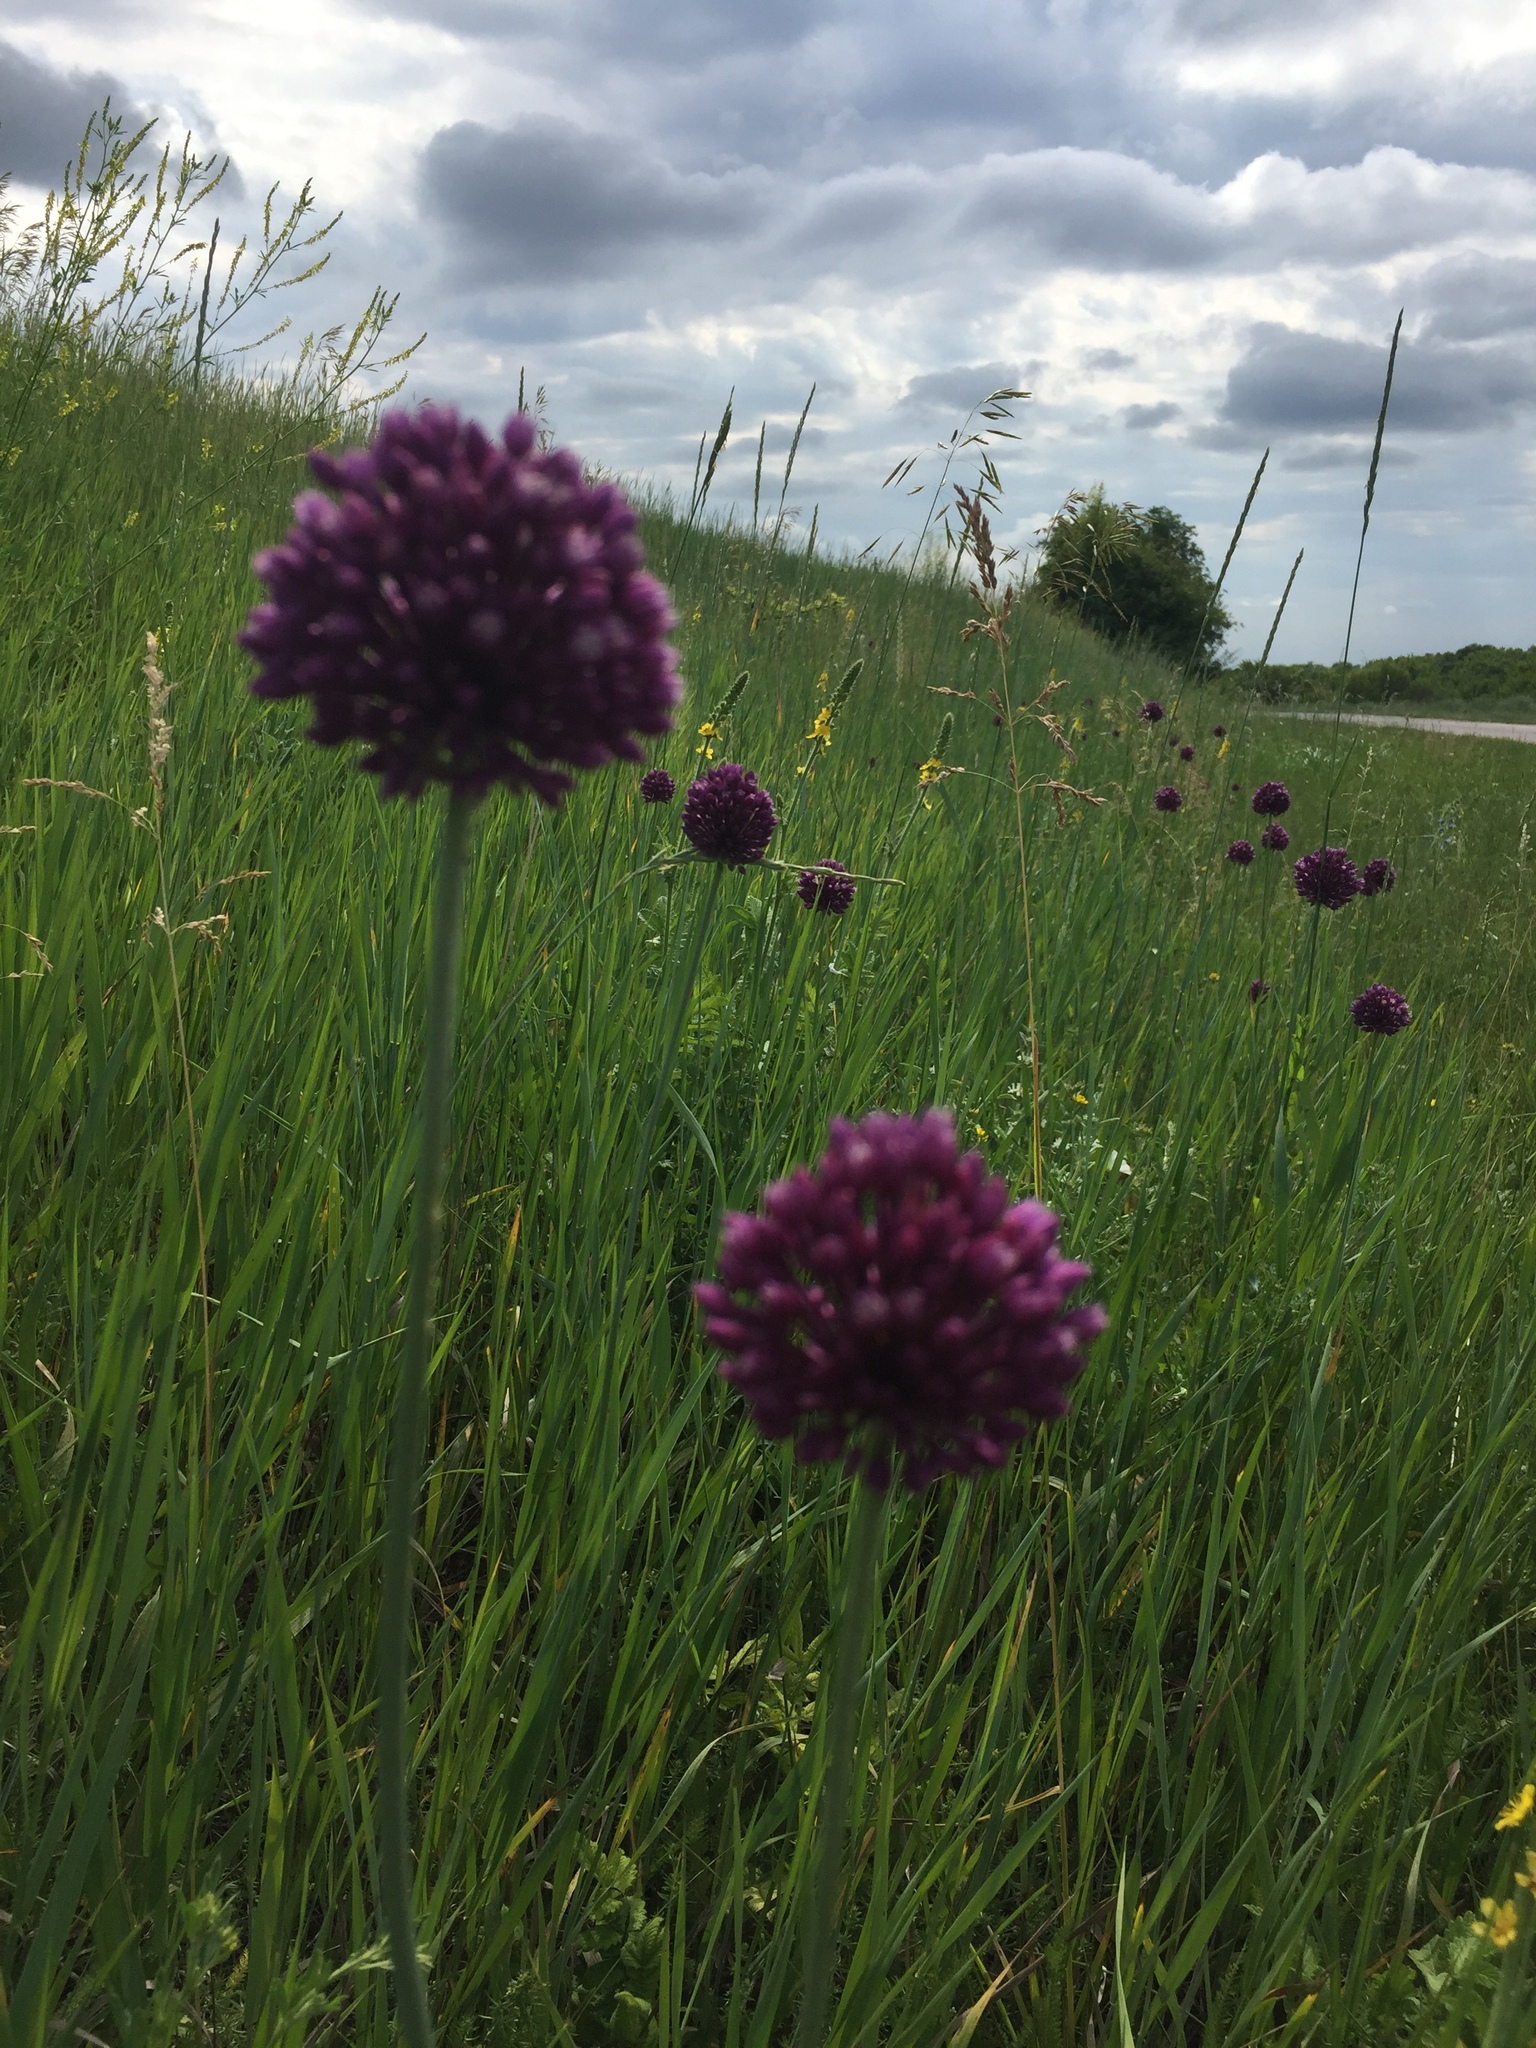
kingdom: Plantae
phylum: Tracheophyta
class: Liliopsida
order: Asparagales
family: Amaryllidaceae
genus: Allium
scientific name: Allium rotundum
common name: Sand leek
